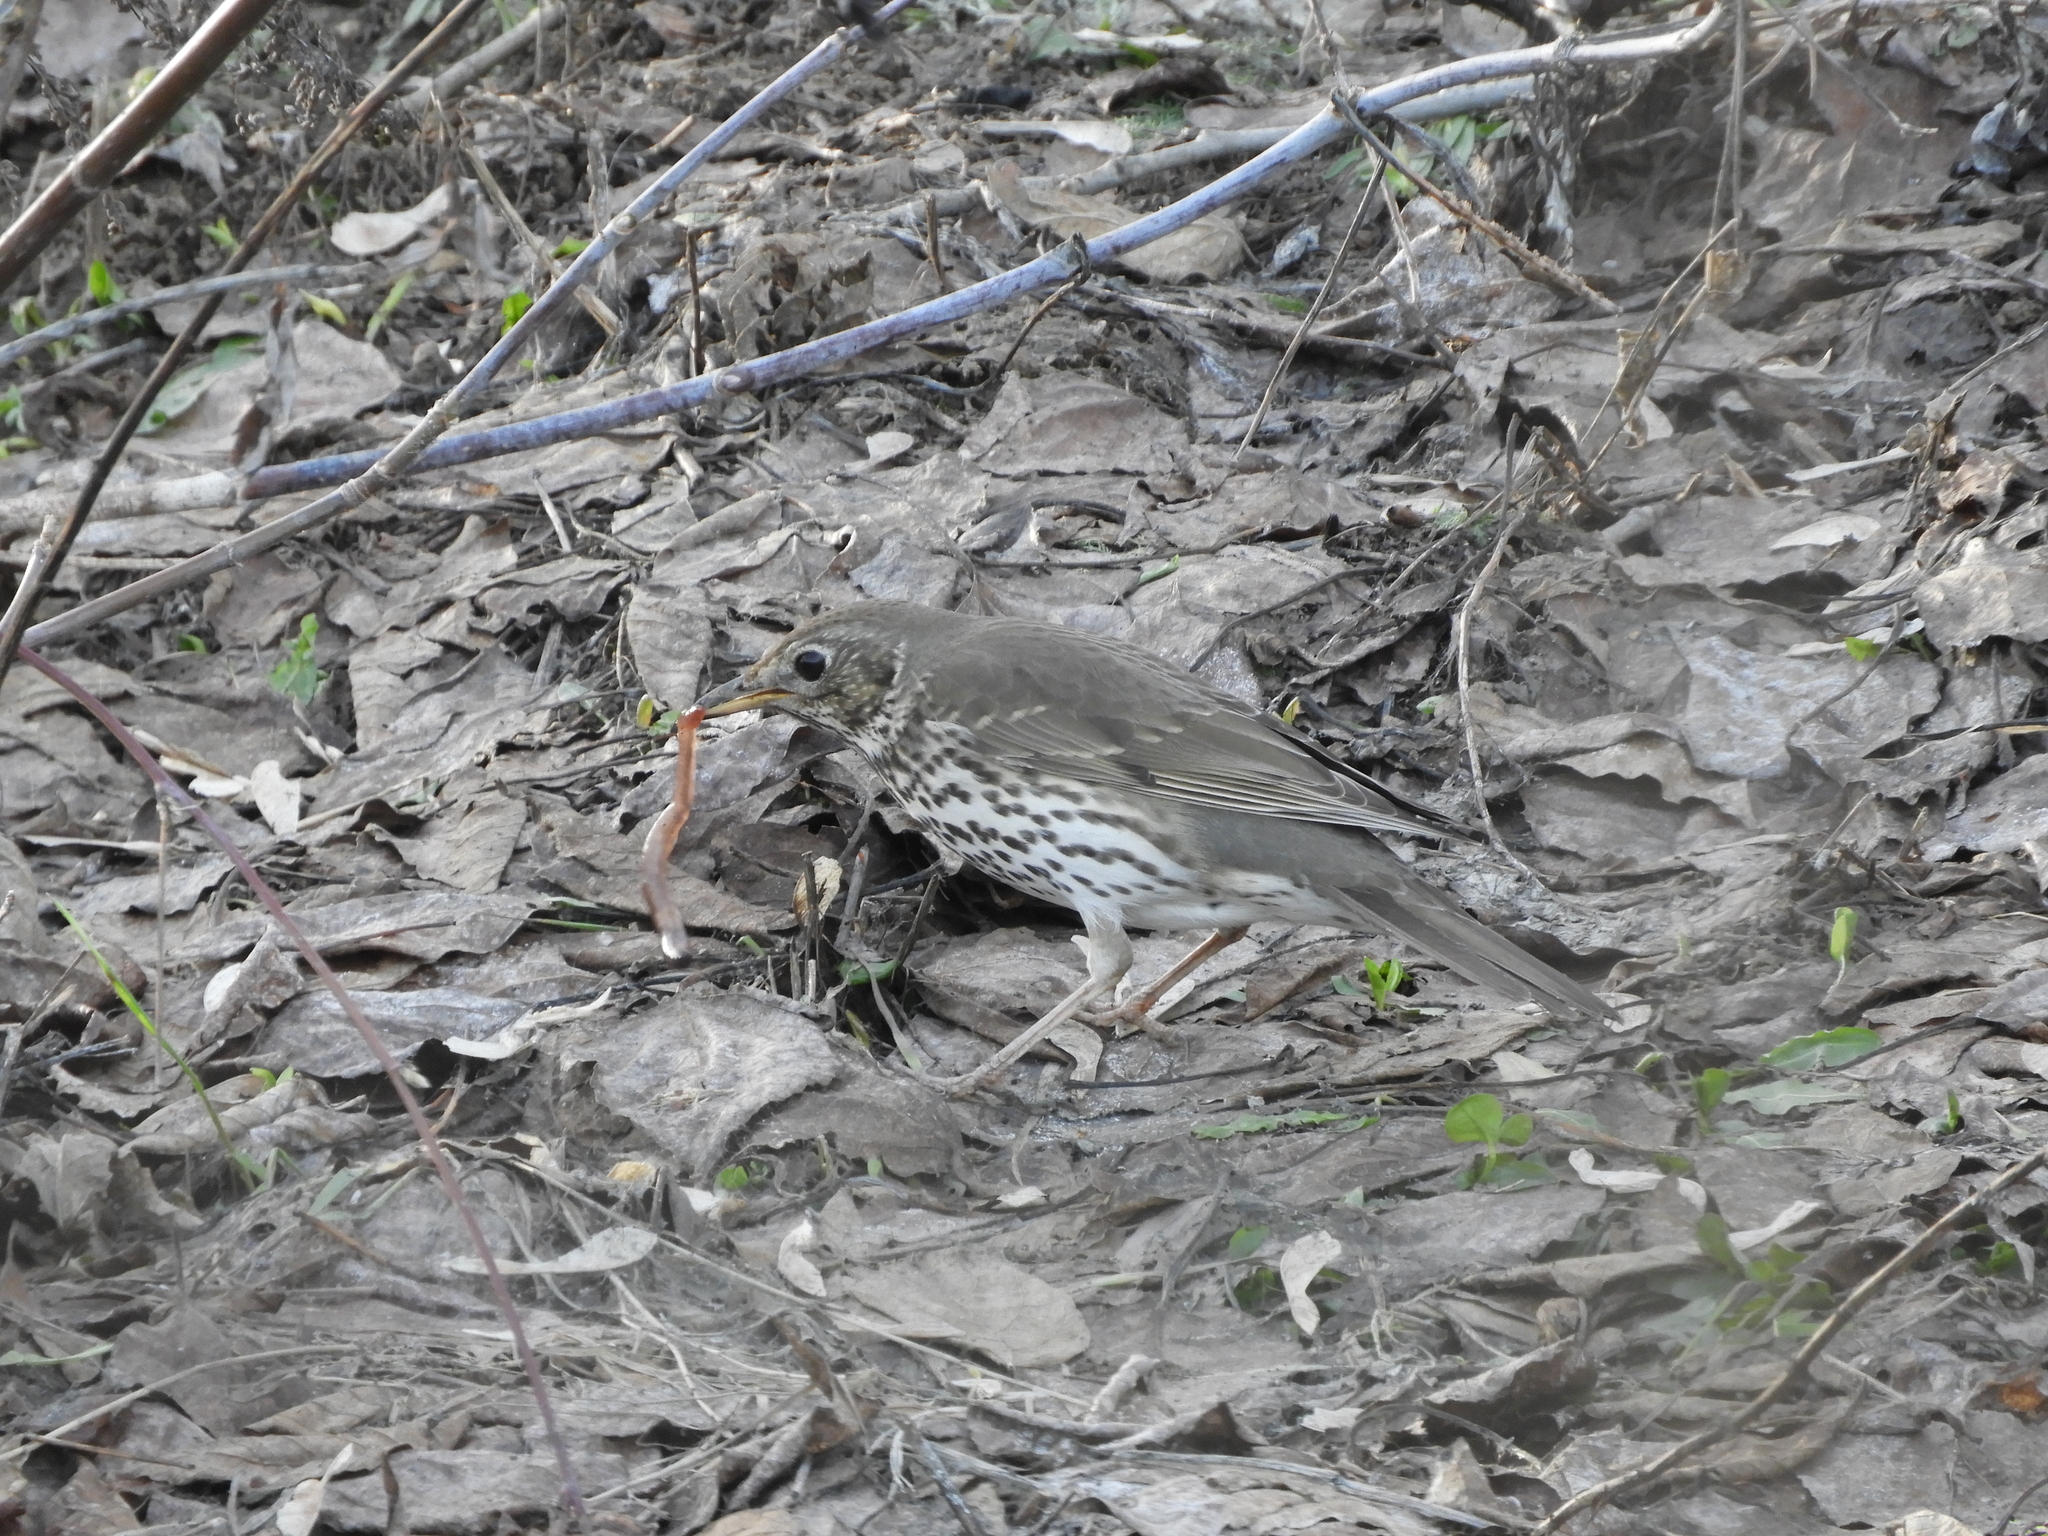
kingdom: Animalia
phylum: Chordata
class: Aves
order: Passeriformes
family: Turdidae
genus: Turdus
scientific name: Turdus philomelos
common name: Song thrush
